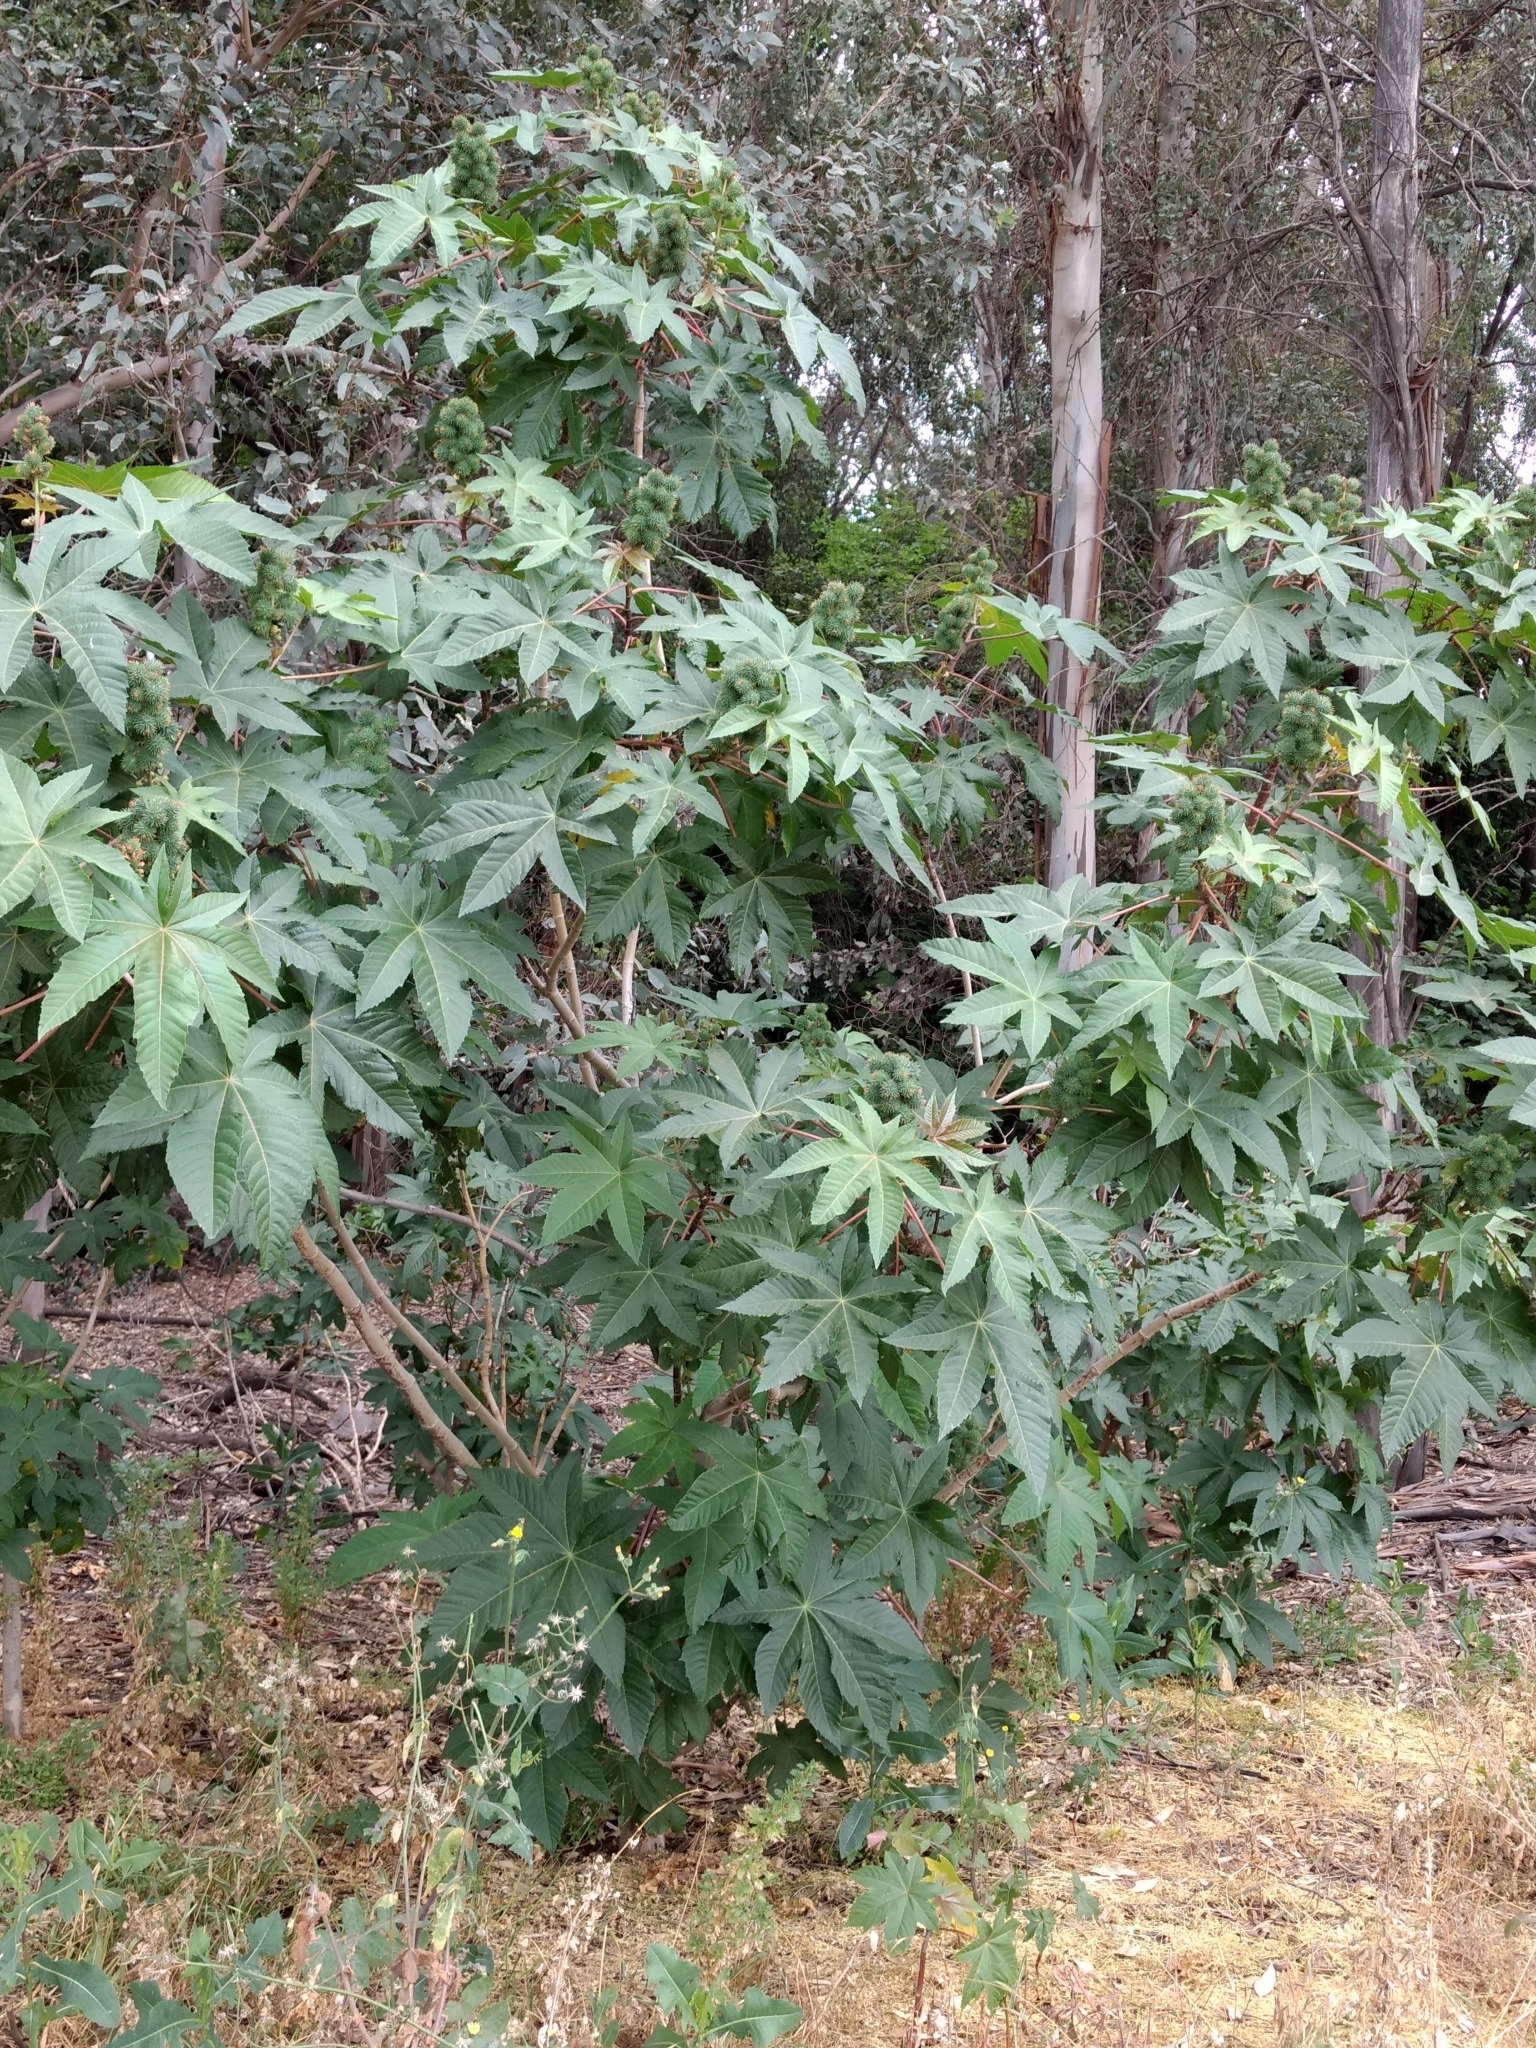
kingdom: Plantae
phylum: Tracheophyta
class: Magnoliopsida
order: Malpighiales
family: Euphorbiaceae
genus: Ricinus
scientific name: Ricinus communis
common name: Castor-oil-plant
